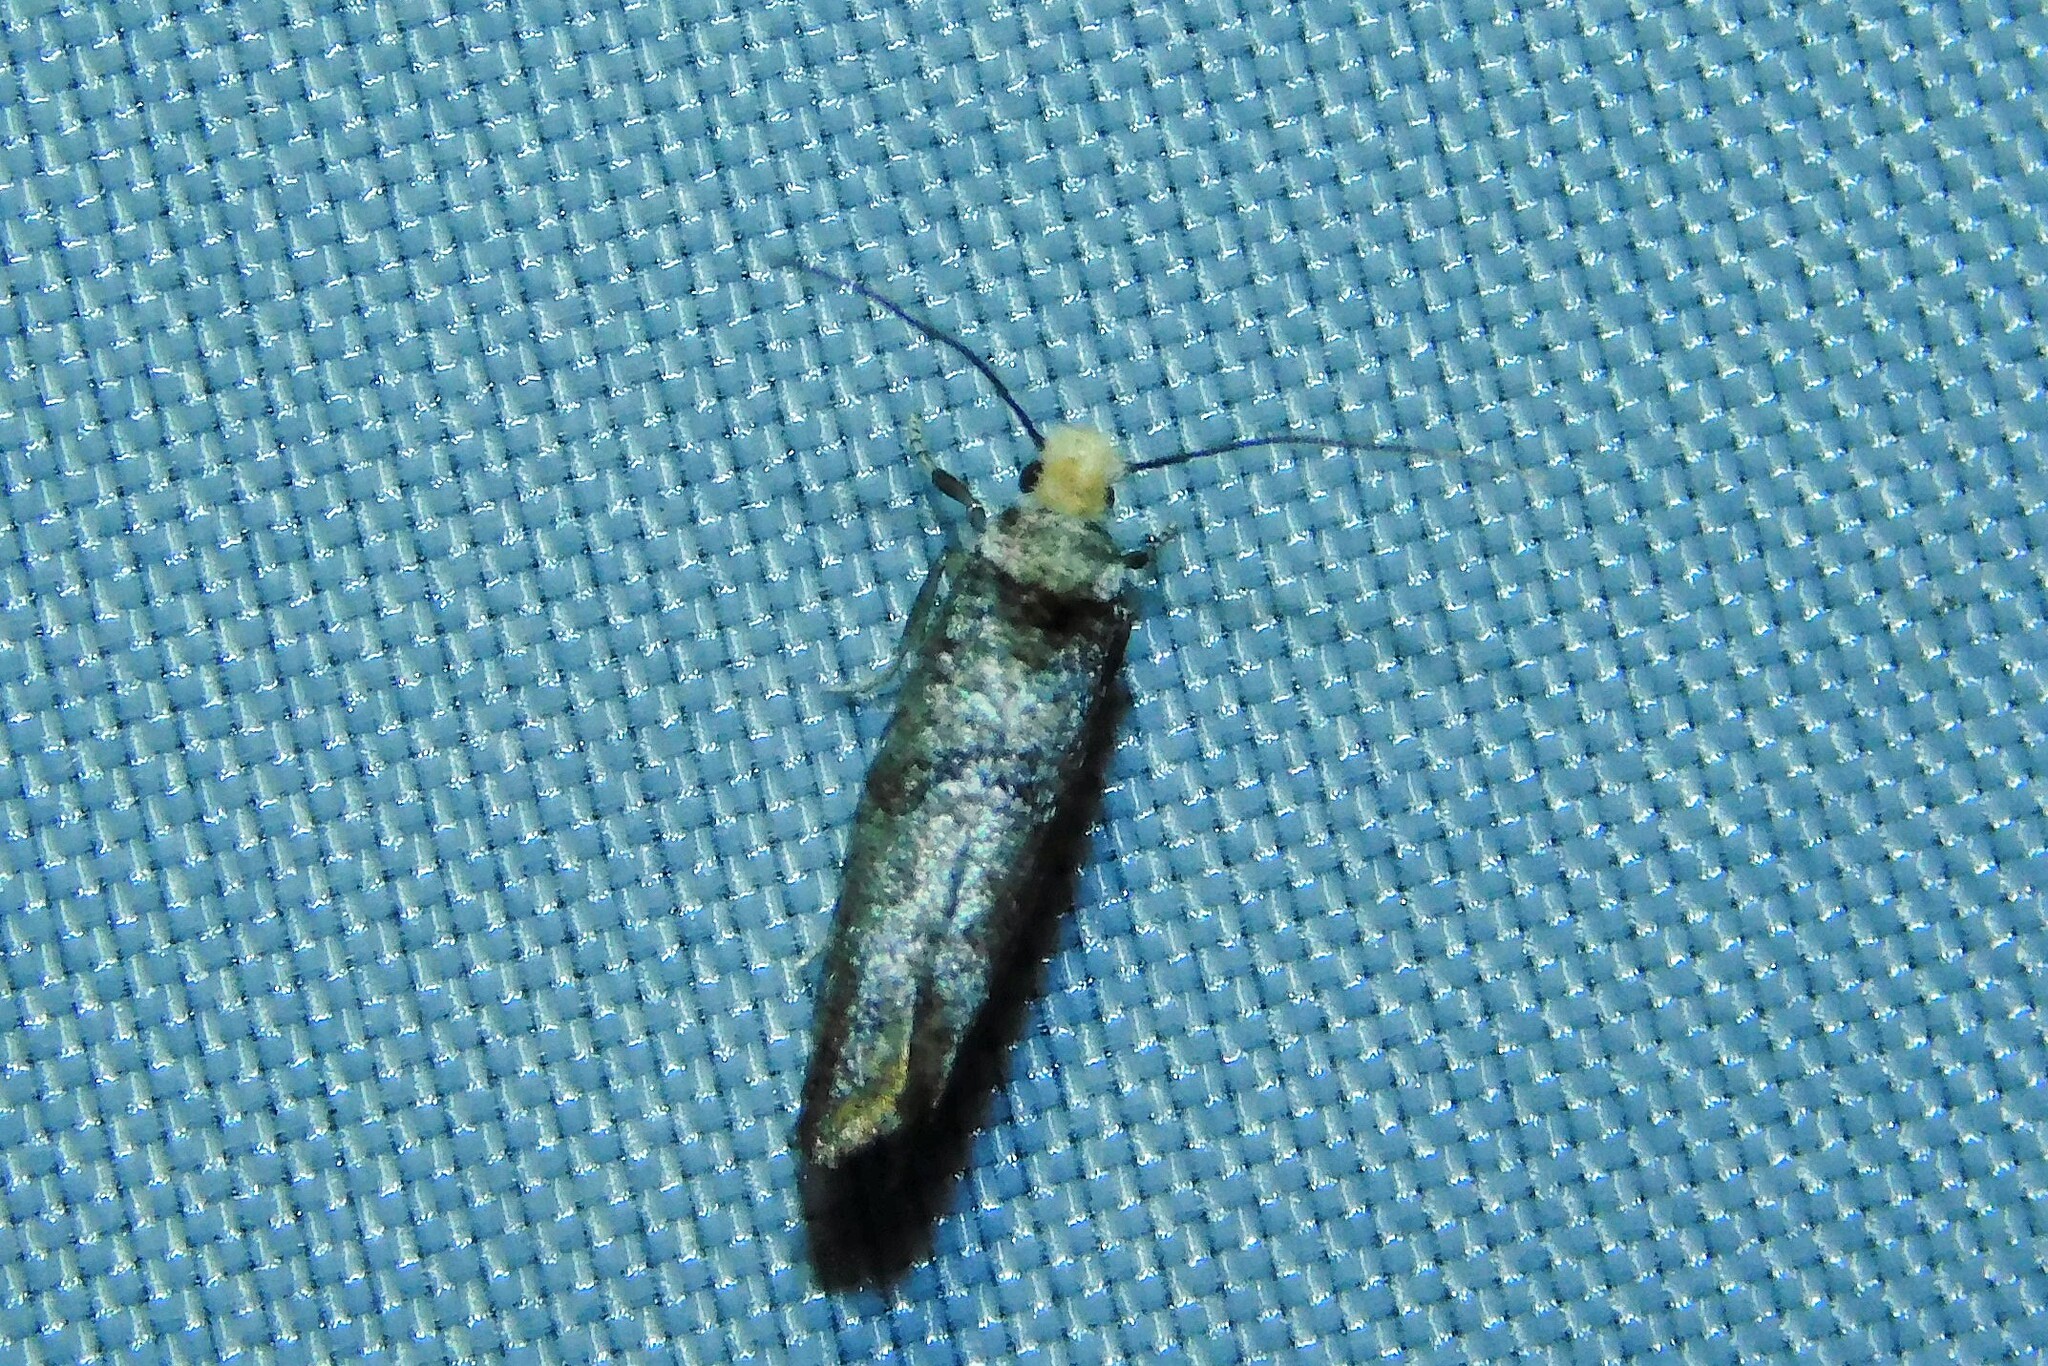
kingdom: Animalia
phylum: Arthropoda
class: Insecta
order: Lepidoptera
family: Yponomeutidae
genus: Paraswammerdamia
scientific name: Paraswammerdamia lutarea
